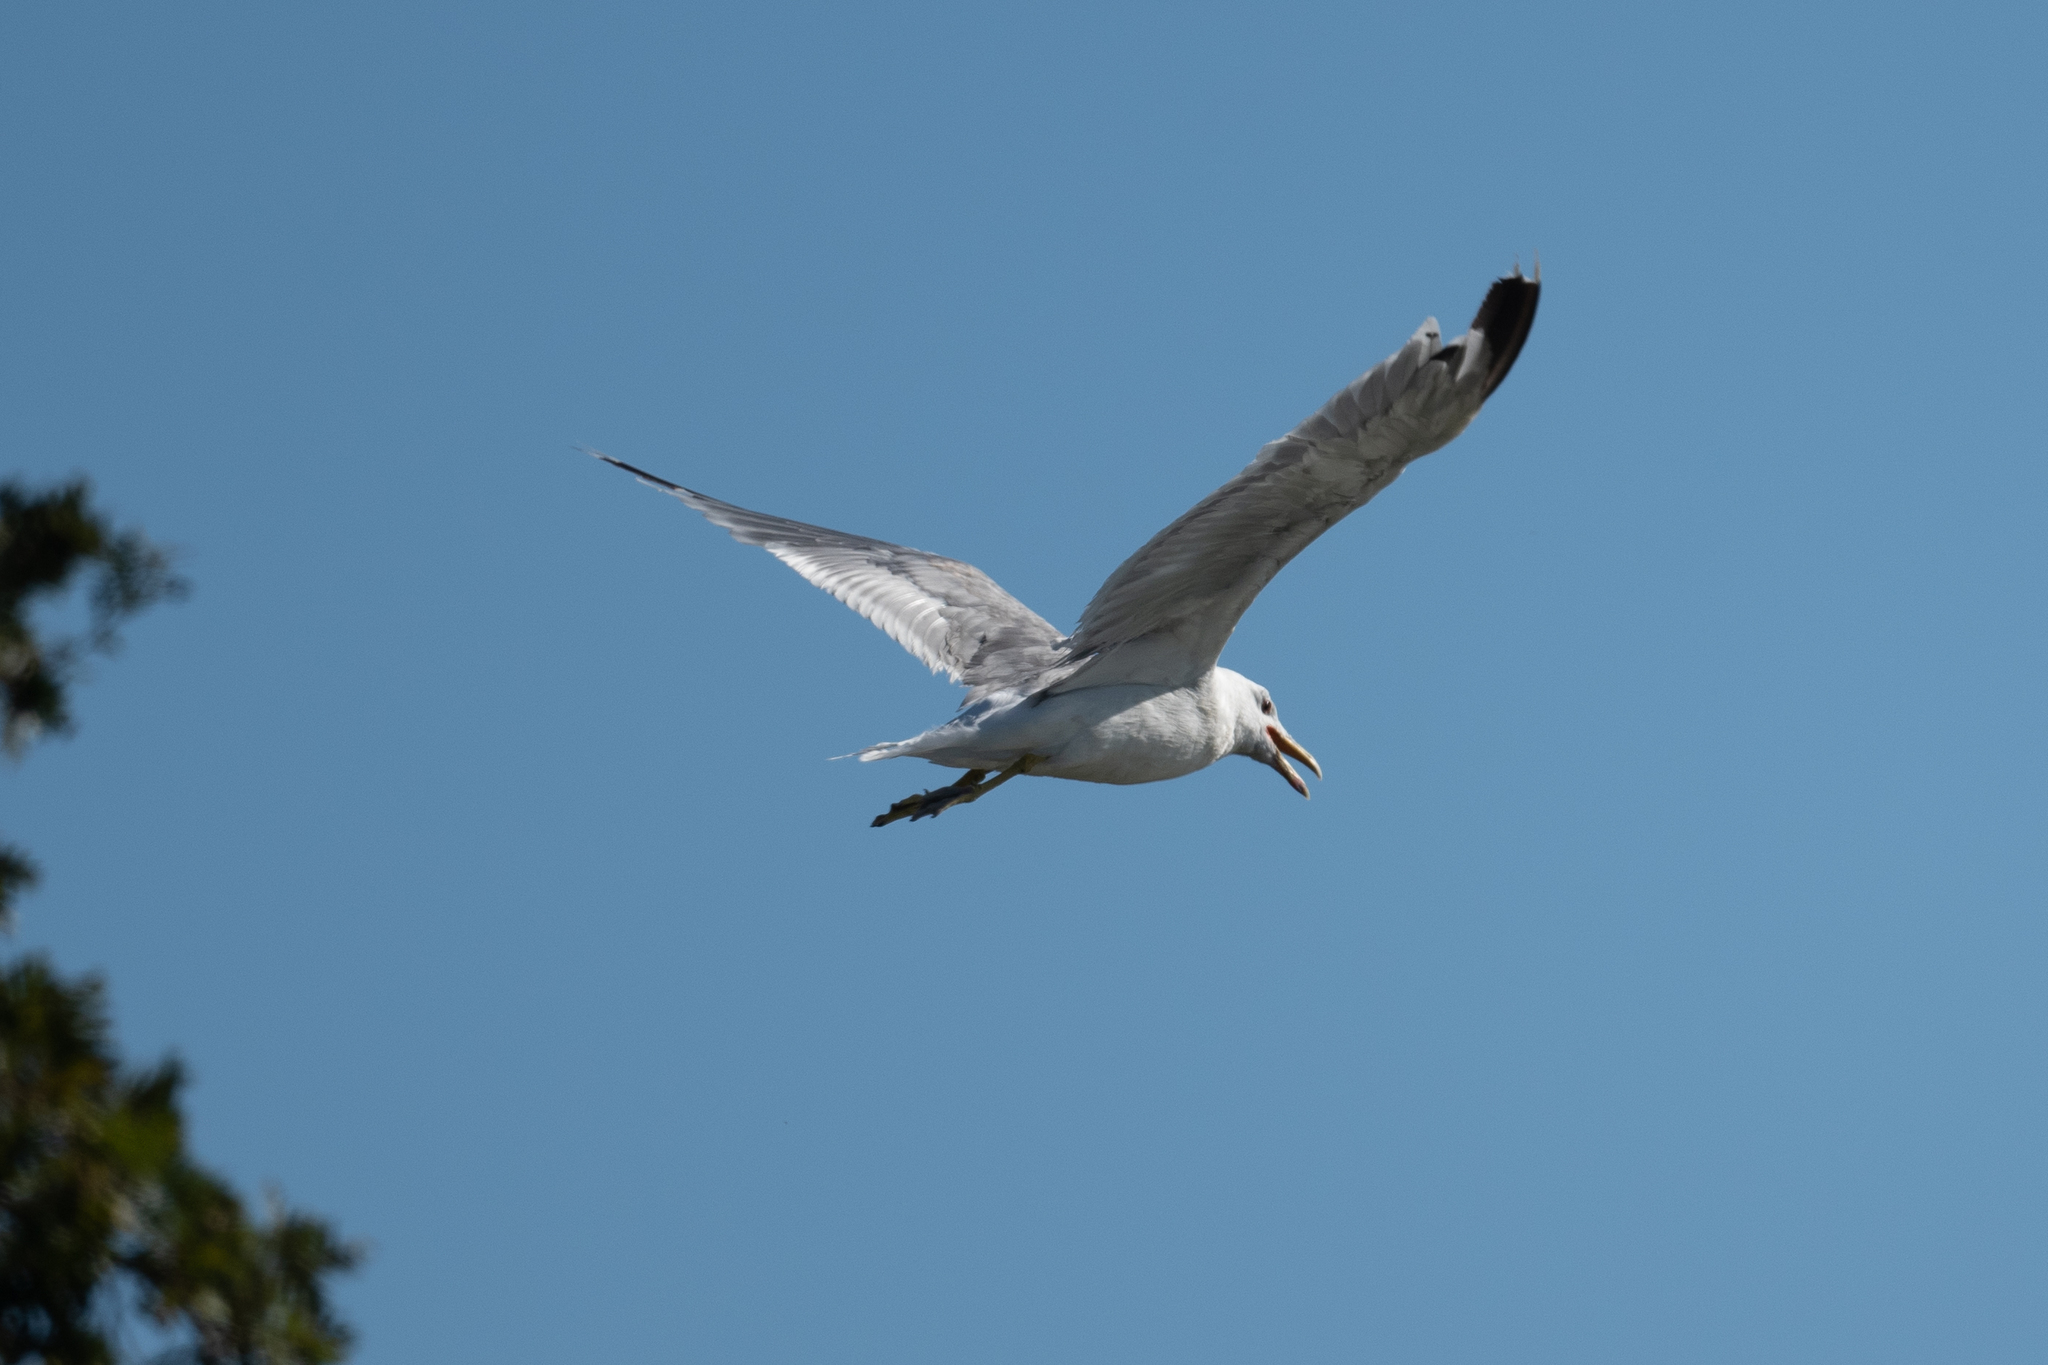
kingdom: Animalia
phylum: Chordata
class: Aves
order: Charadriiformes
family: Laridae
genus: Larus
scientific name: Larus californicus
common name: California gull
